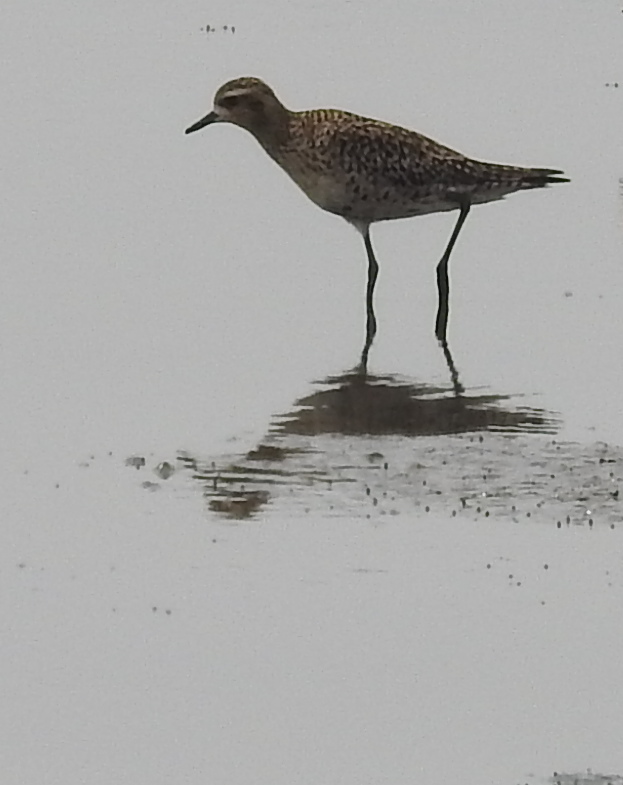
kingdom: Animalia
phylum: Chordata
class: Aves
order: Charadriiformes
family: Charadriidae
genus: Pluvialis
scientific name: Pluvialis fulva
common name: Pacific golden plover
